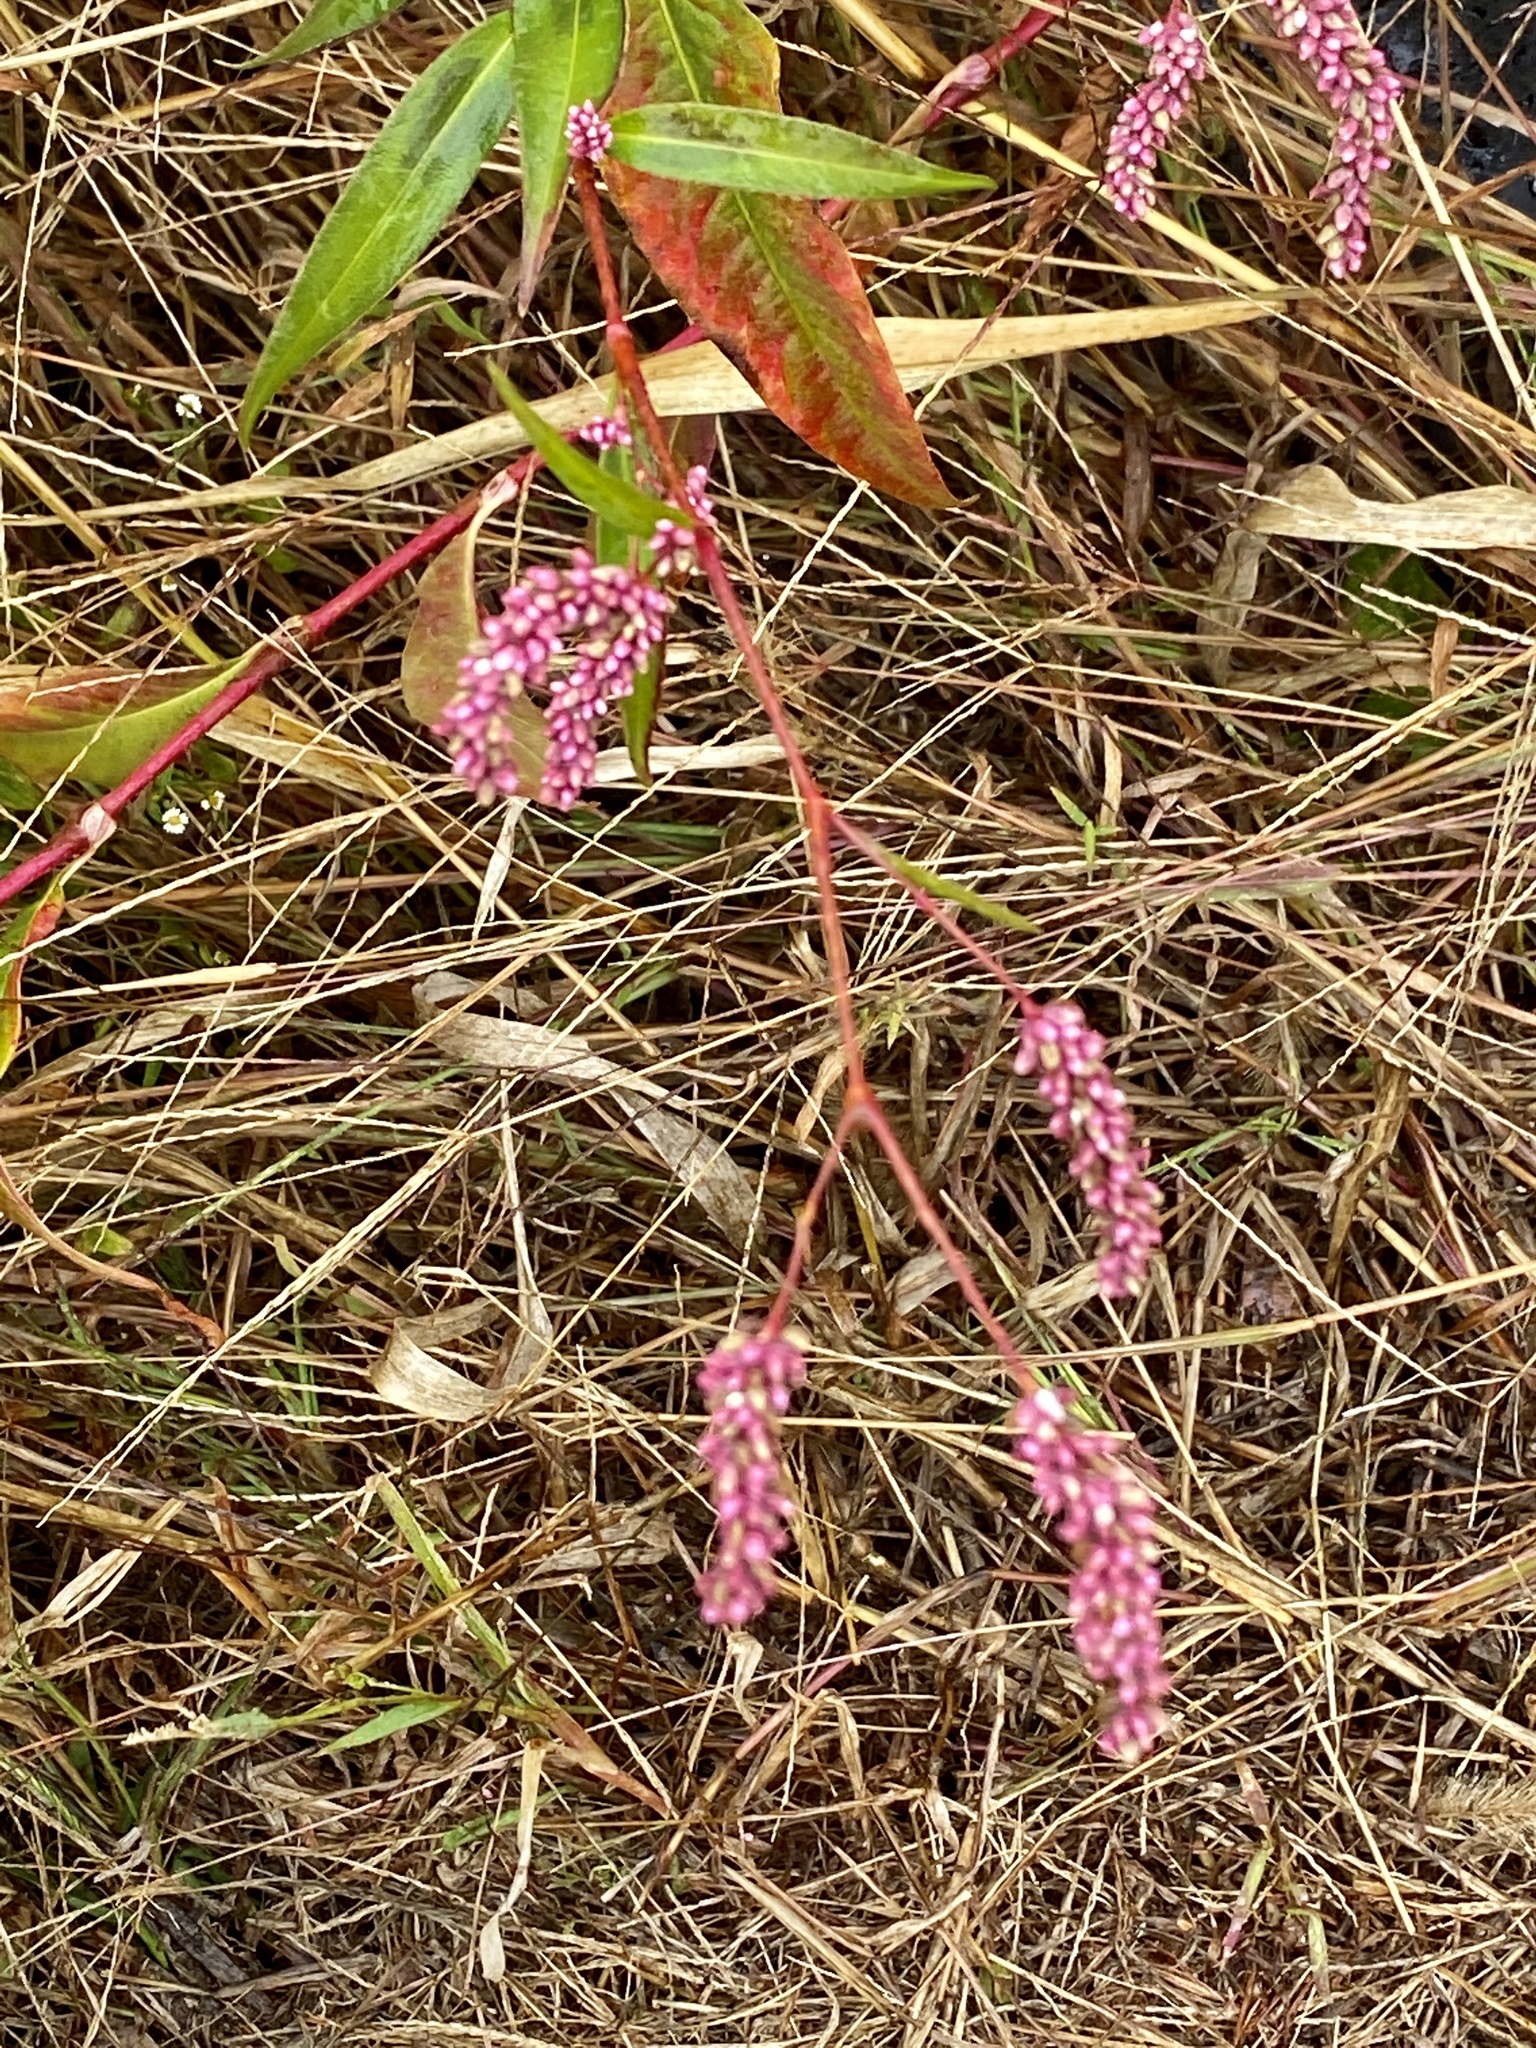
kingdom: Plantae
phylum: Tracheophyta
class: Magnoliopsida
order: Caryophyllales
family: Polygonaceae
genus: Persicaria
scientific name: Persicaria extremiorientalis
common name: Far-eastern smartweed
